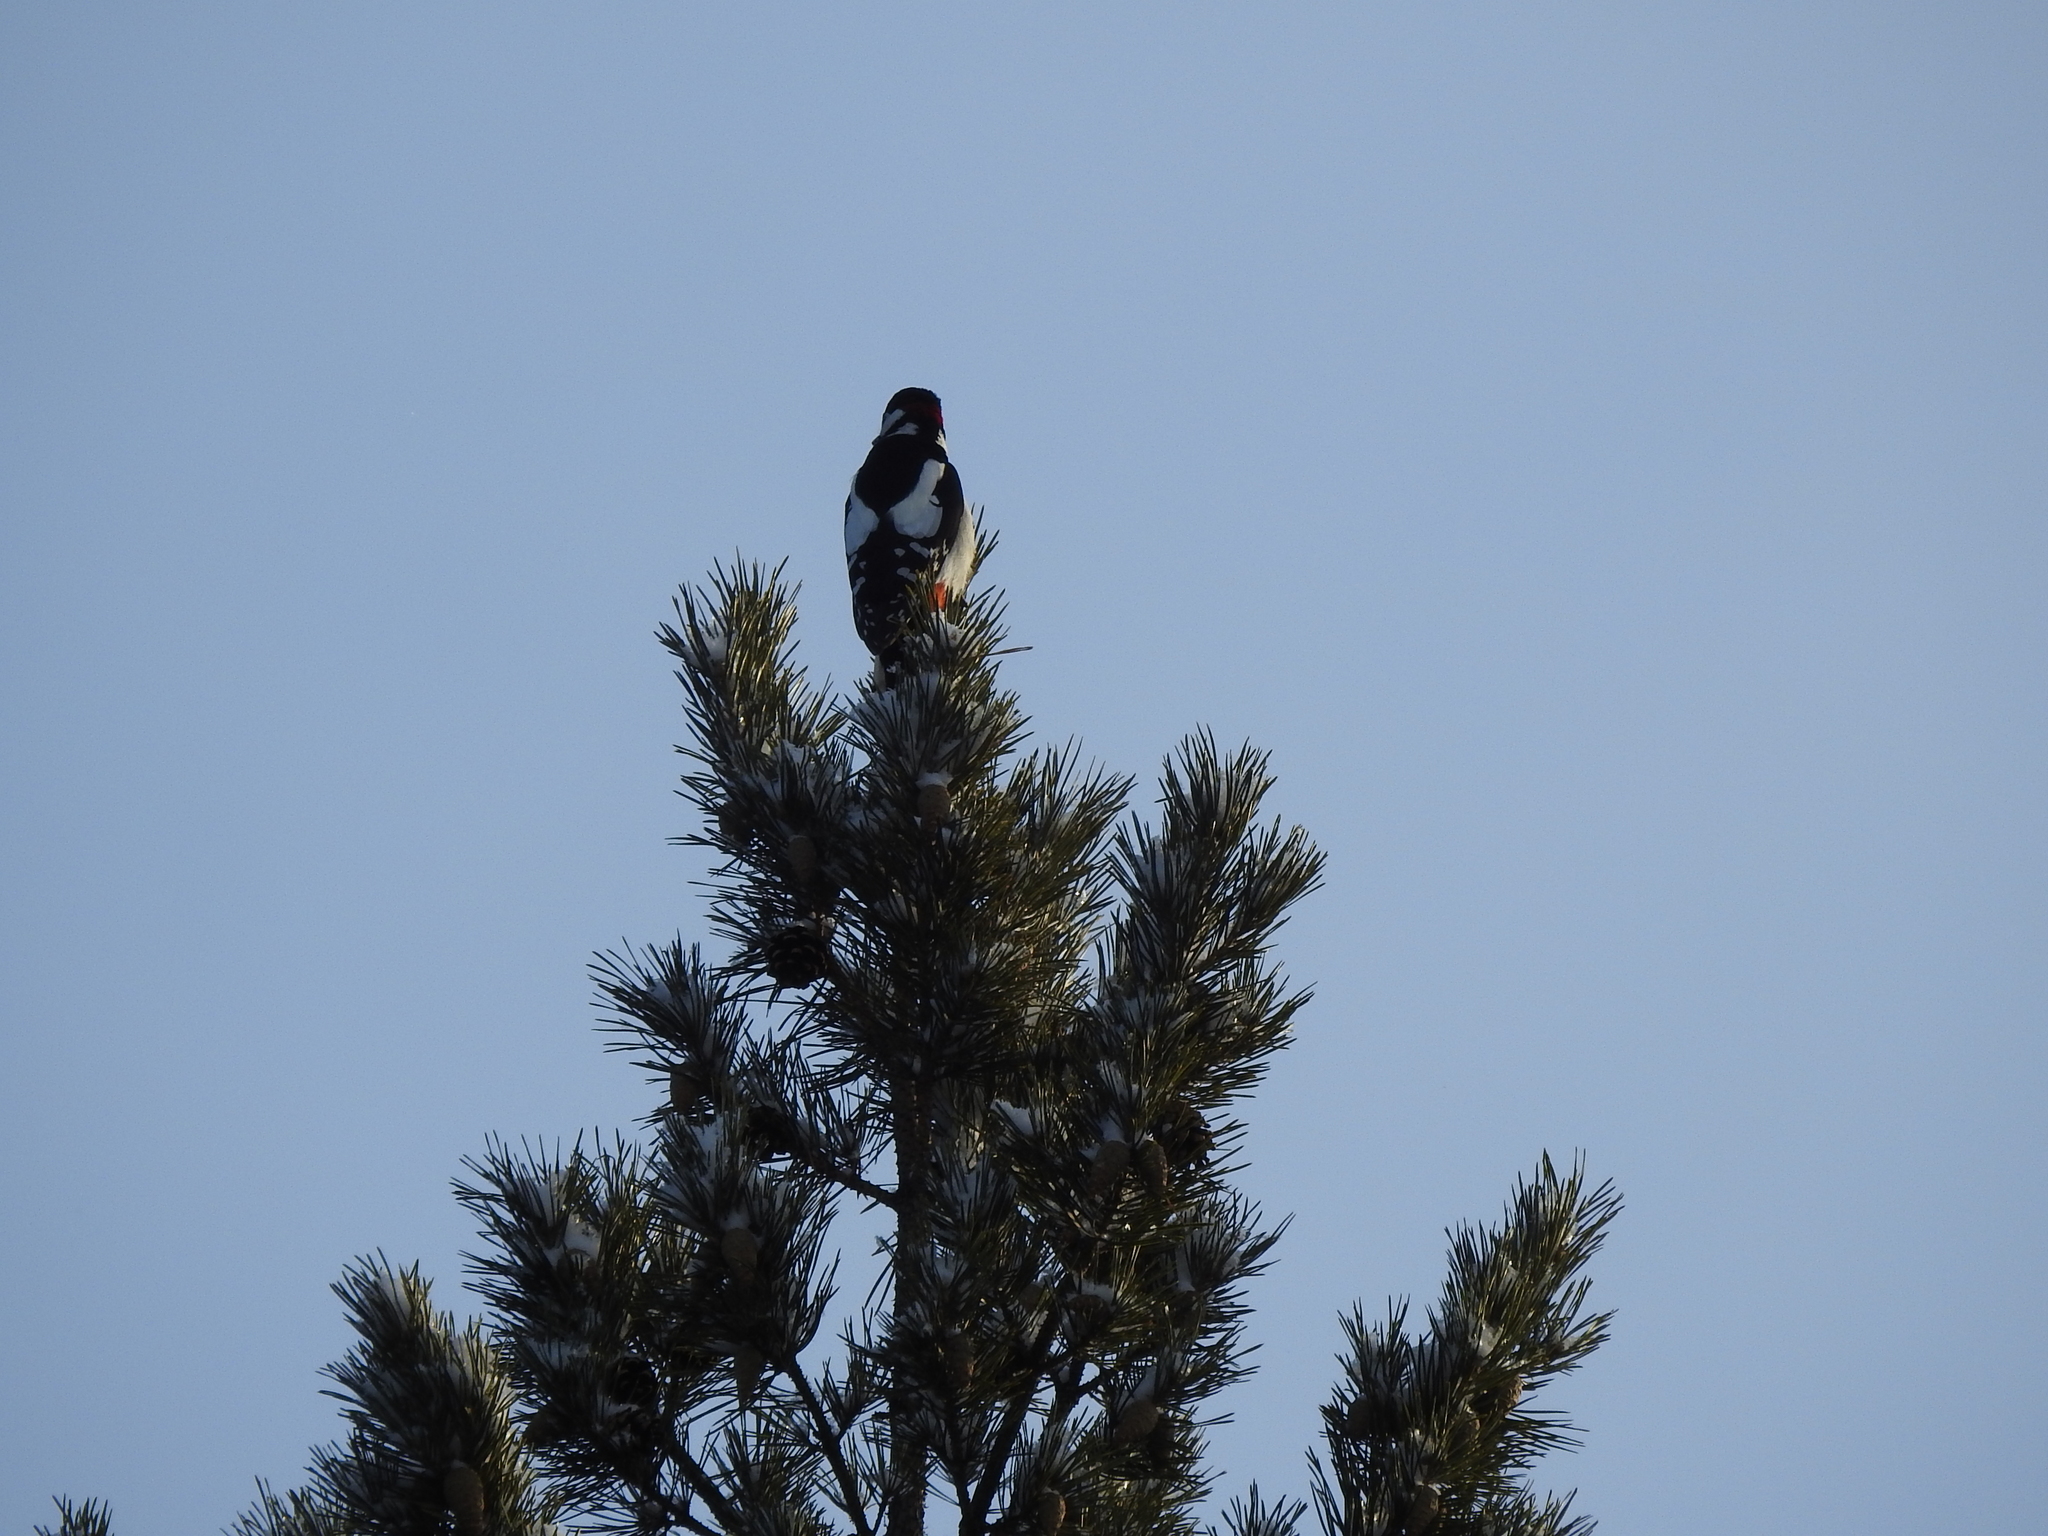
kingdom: Animalia
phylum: Chordata
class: Aves
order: Piciformes
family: Picidae
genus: Dendrocopos
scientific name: Dendrocopos major
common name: Great spotted woodpecker
